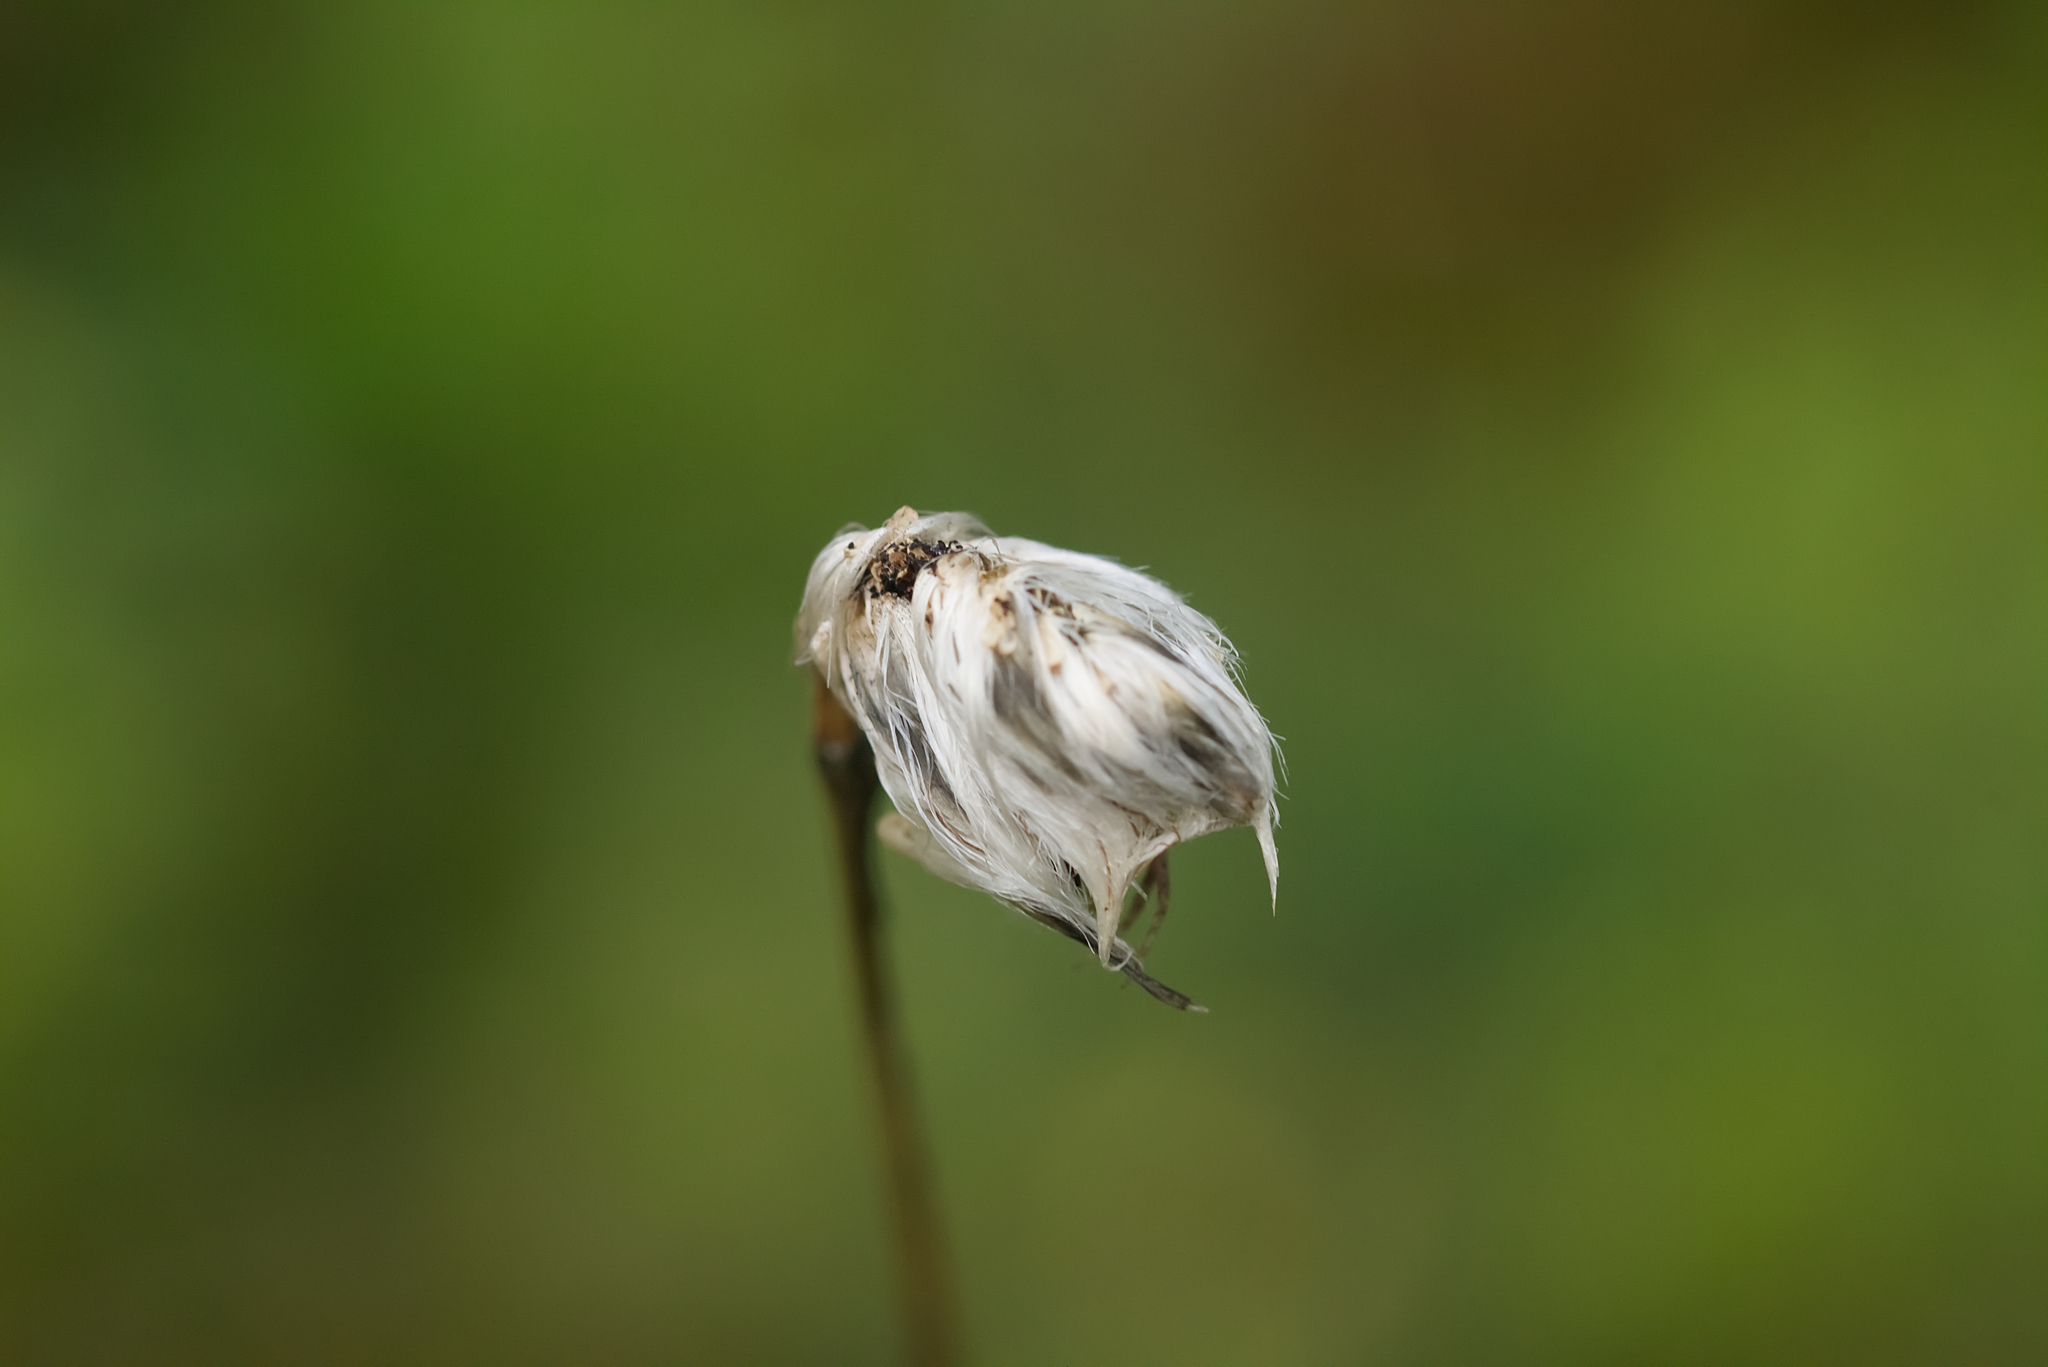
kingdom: Plantae
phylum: Tracheophyta
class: Liliopsida
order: Poales
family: Cyperaceae
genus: Eriophorum
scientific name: Eriophorum vaginatum
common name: Hare's-tail cottongrass
